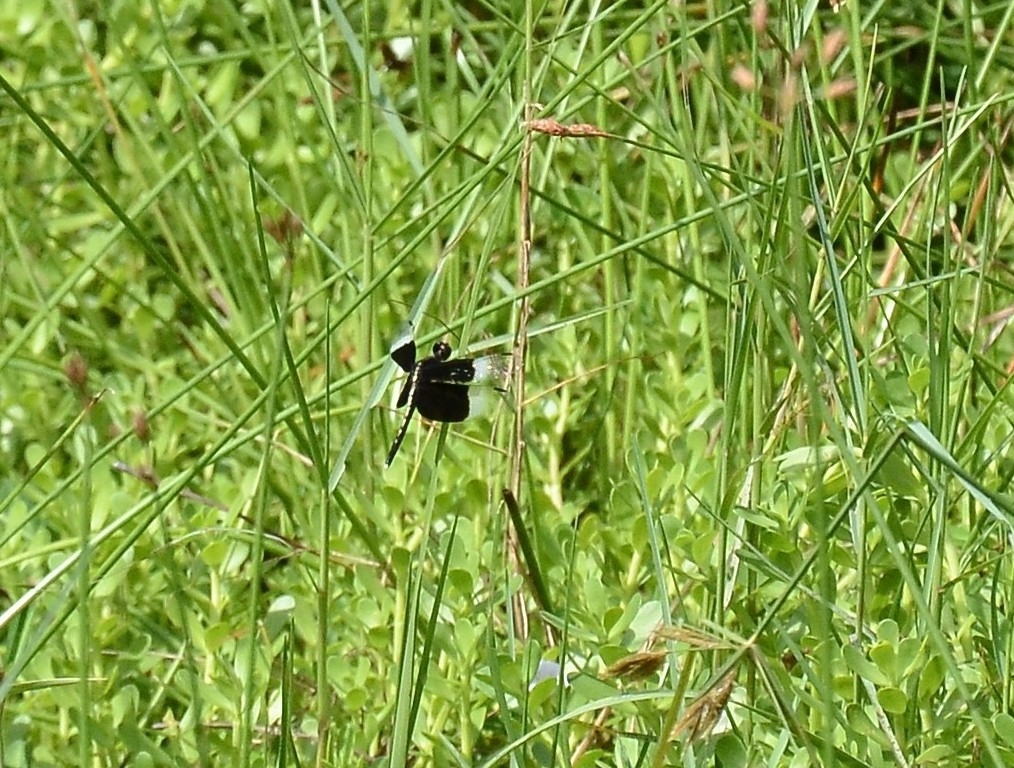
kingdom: Animalia
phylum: Arthropoda
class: Insecta
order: Odonata
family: Libellulidae
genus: Neurothemis
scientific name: Neurothemis tullia
